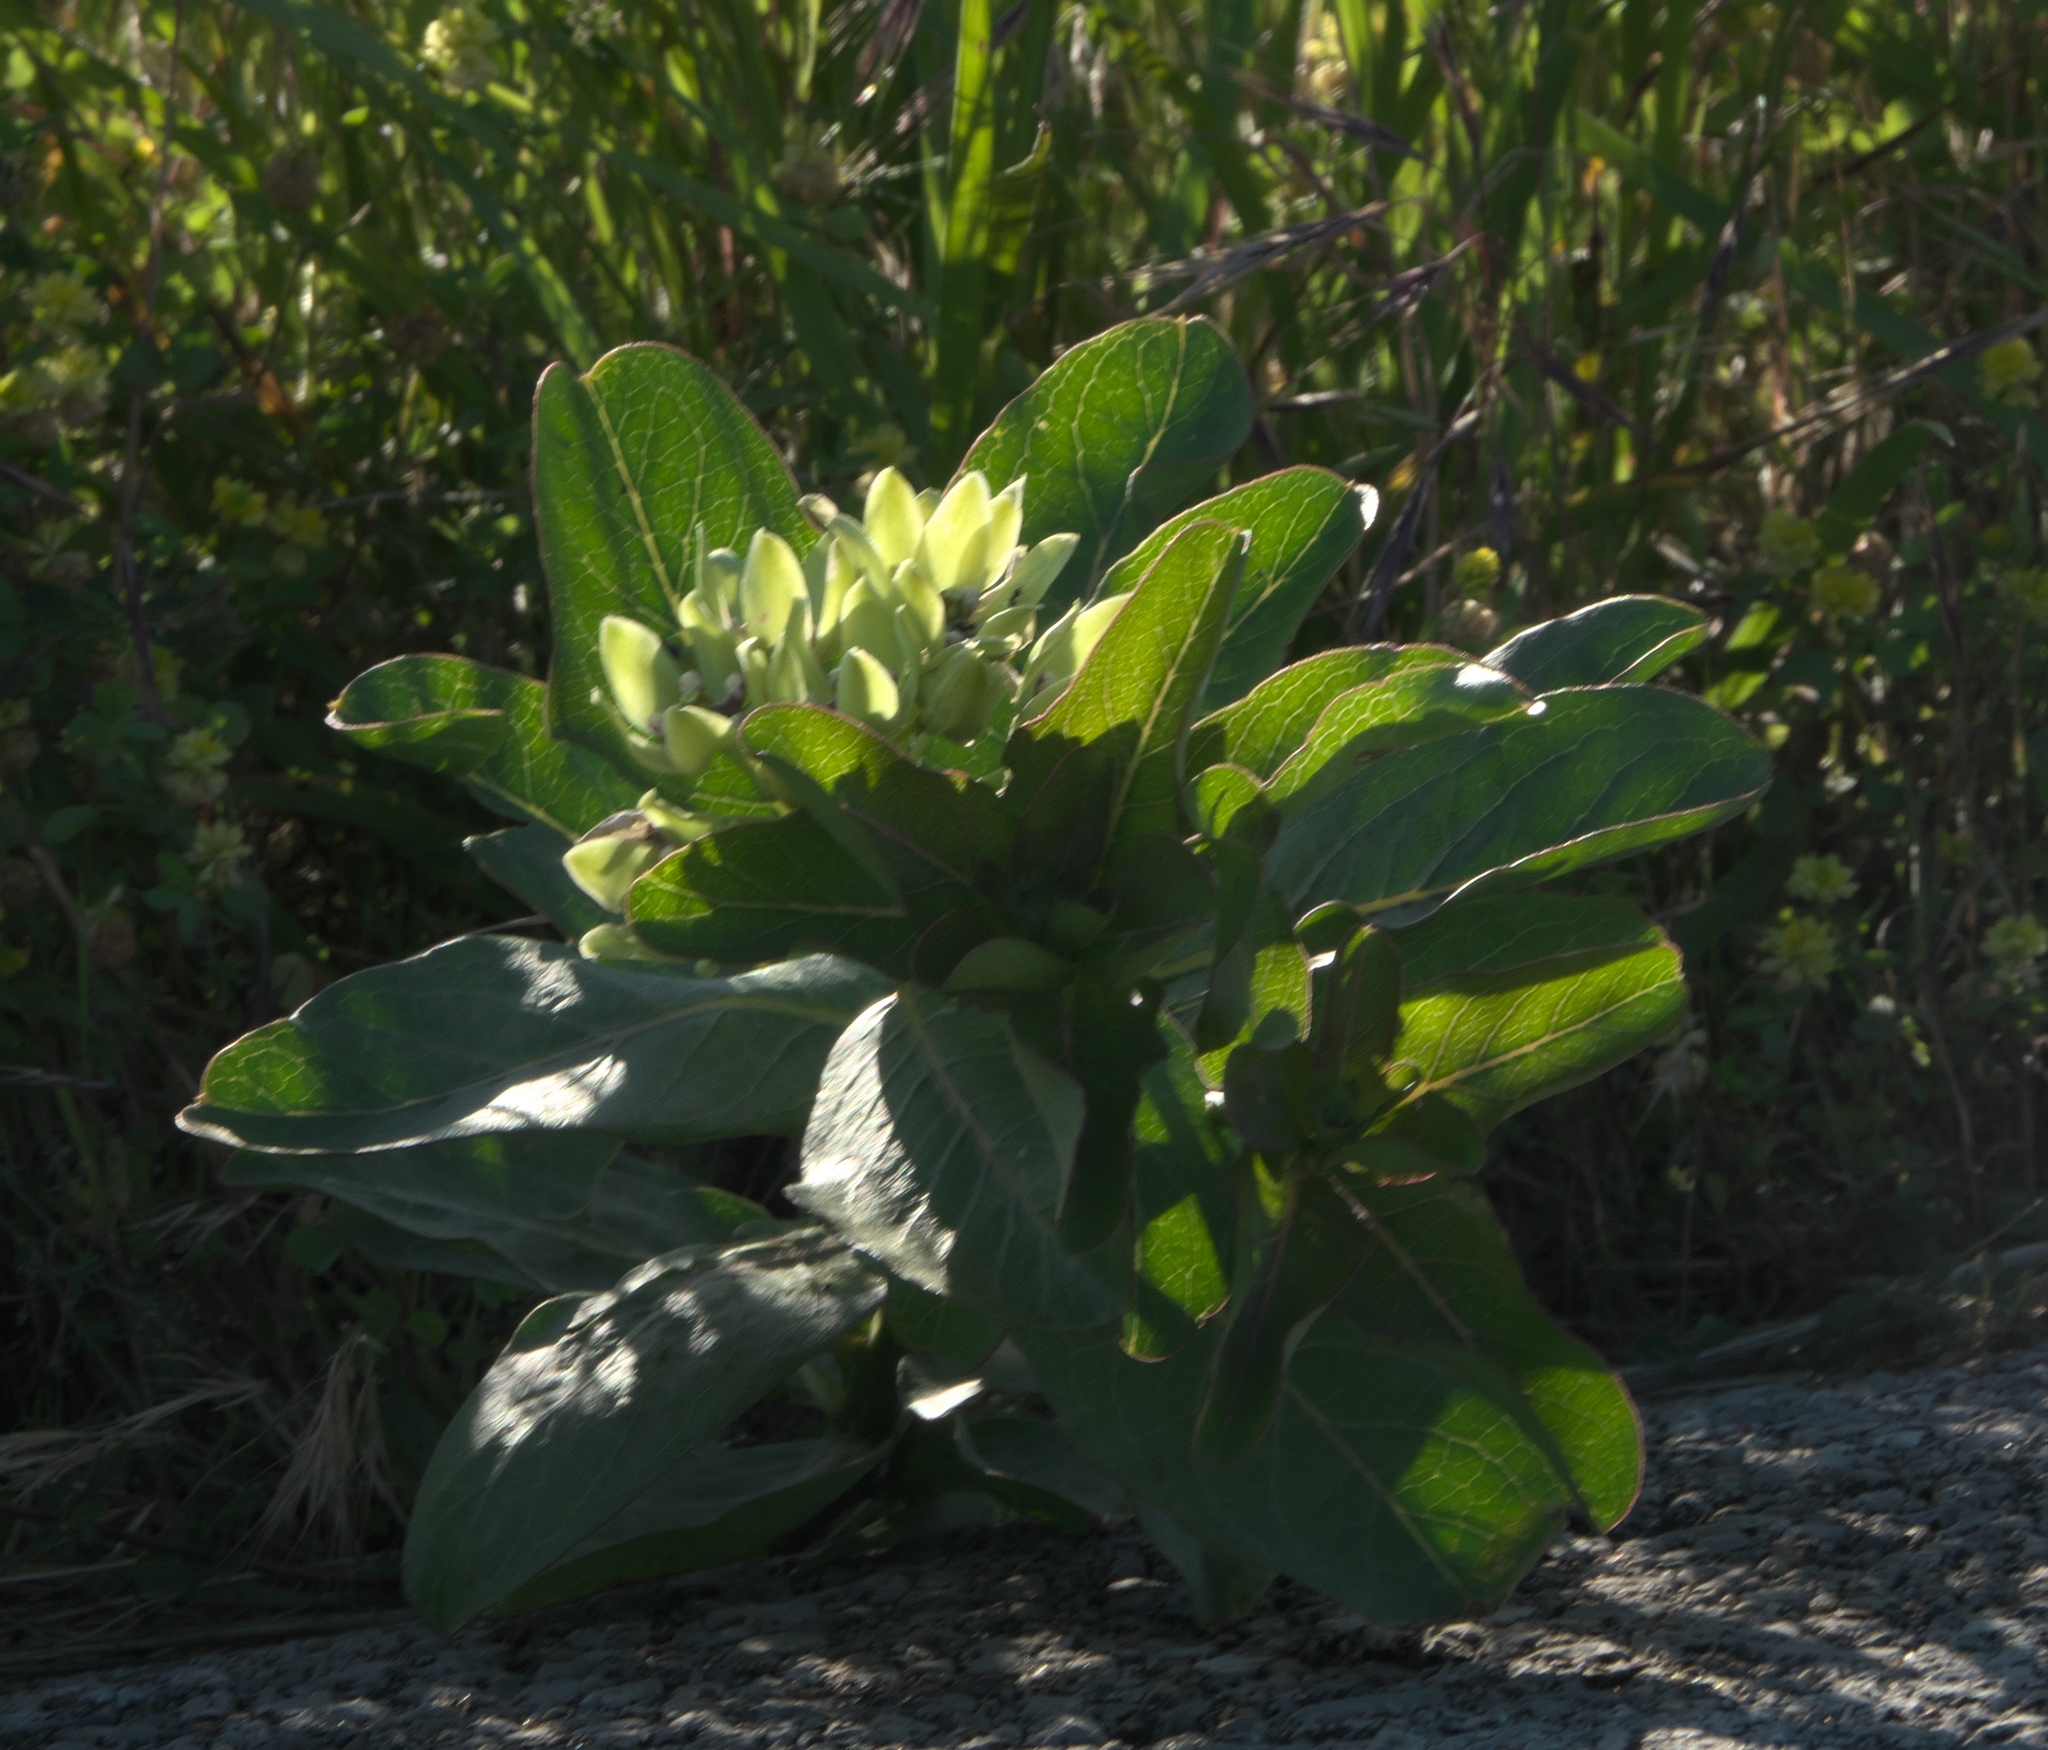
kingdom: Plantae
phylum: Tracheophyta
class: Magnoliopsida
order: Gentianales
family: Apocynaceae
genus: Asclepias
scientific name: Asclepias viridis
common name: Antelope-horns
